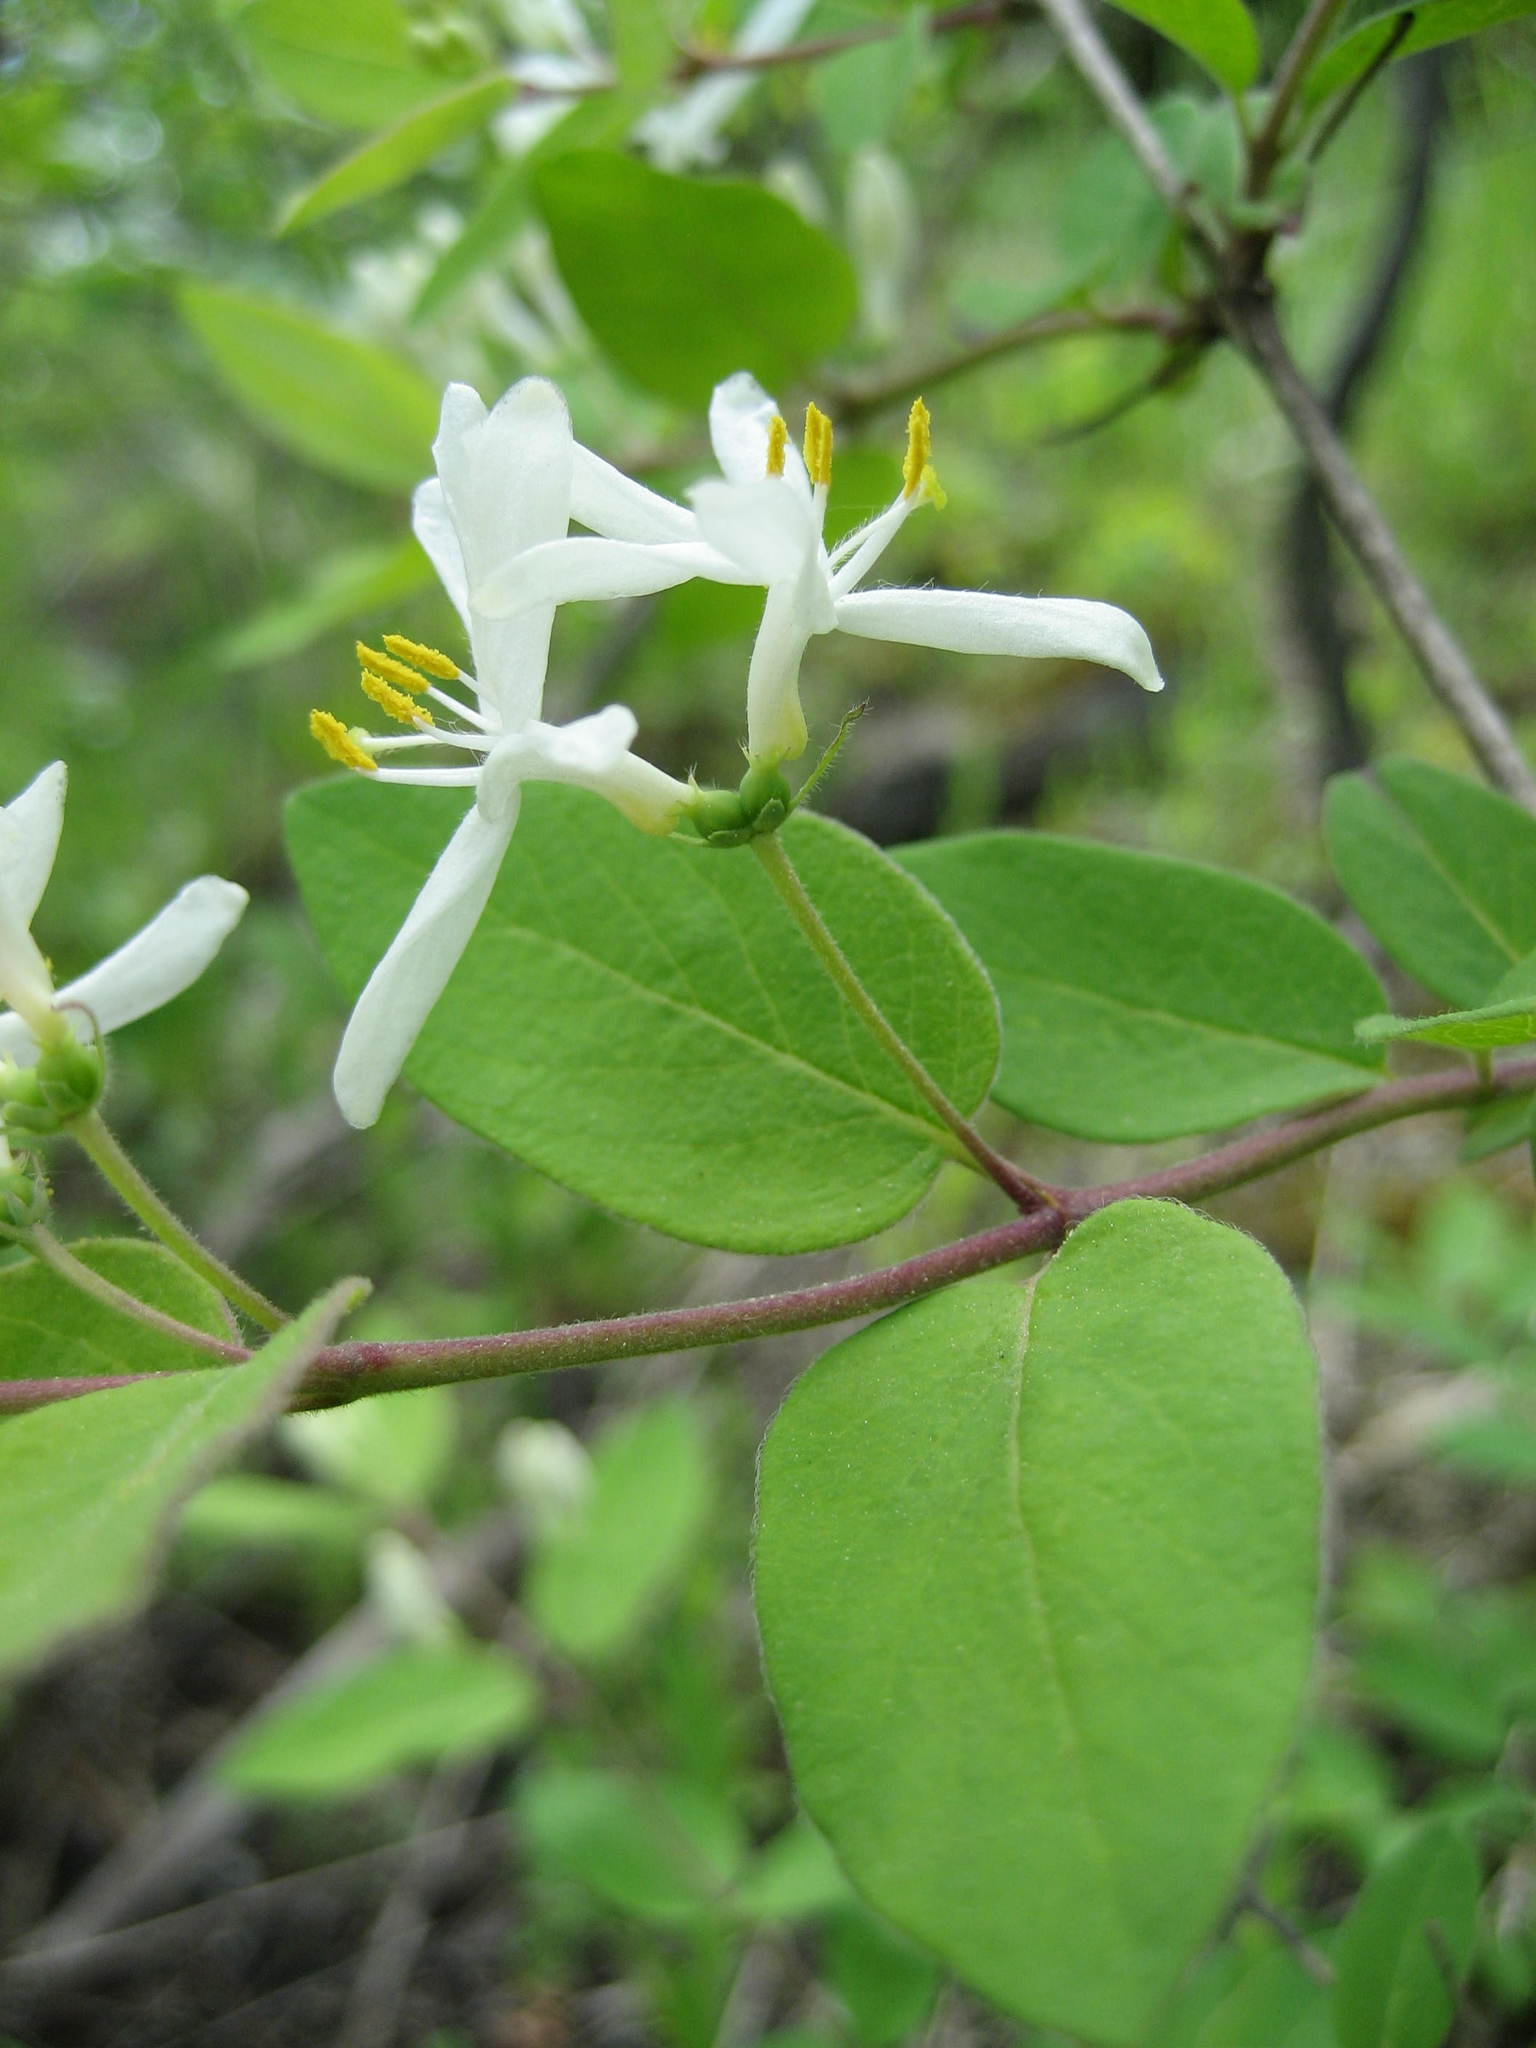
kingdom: Plantae
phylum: Tracheophyta
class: Magnoliopsida
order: Dipsacales
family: Caprifoliaceae
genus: Lonicera
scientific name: Lonicera morrowii
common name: Morrow's honeysuckle
